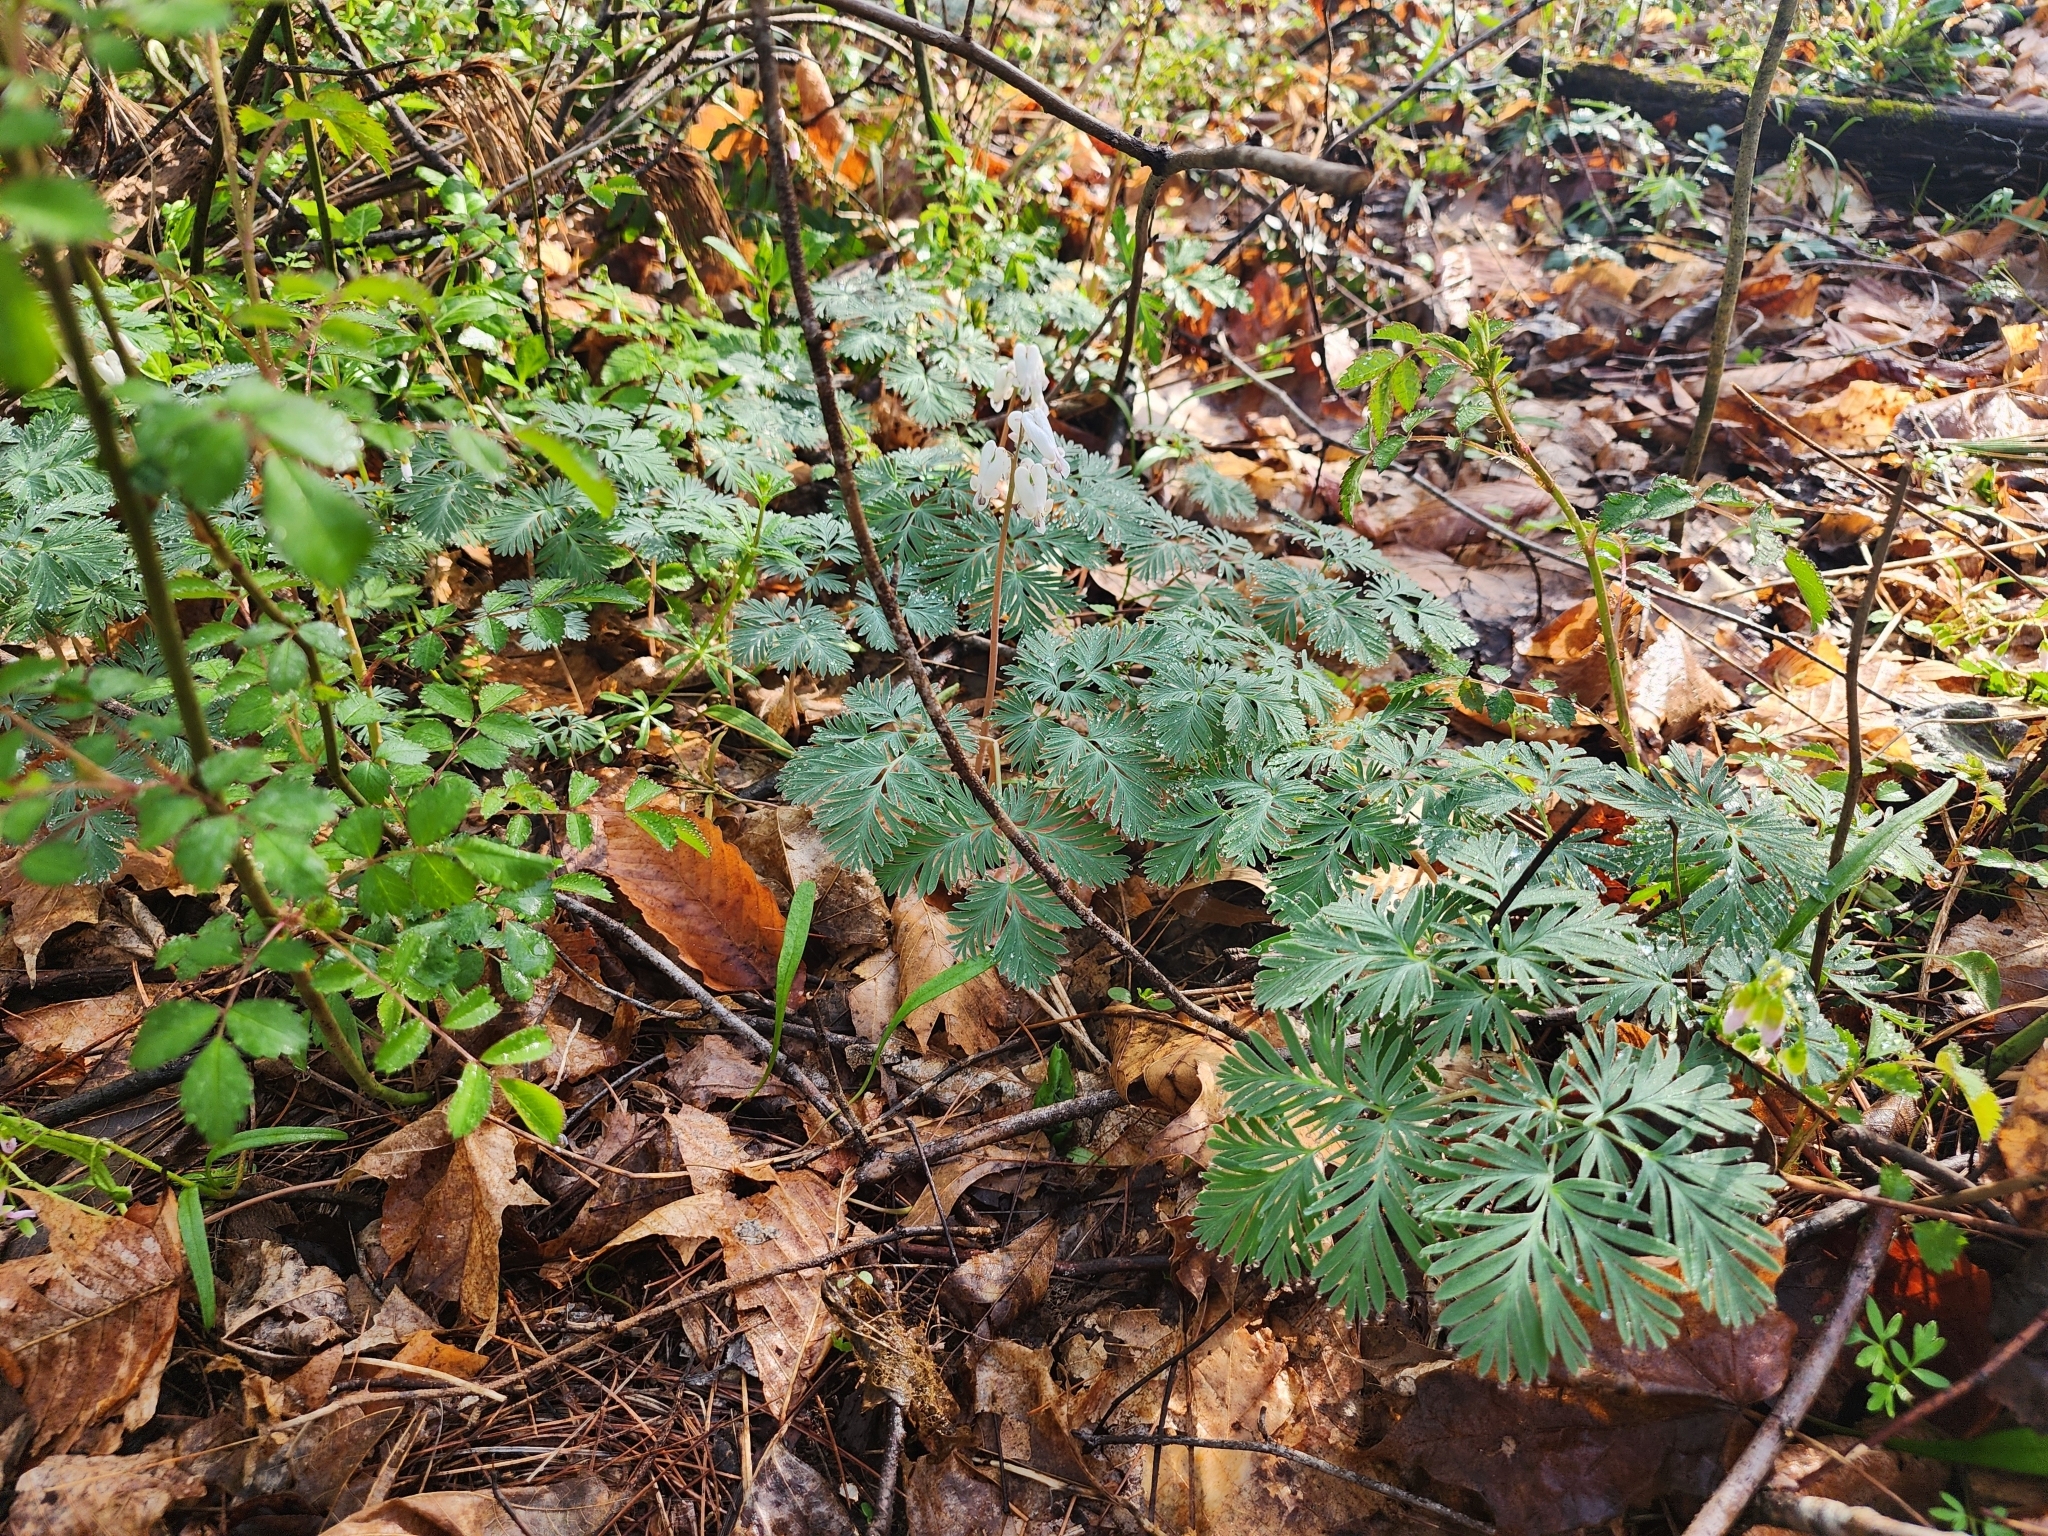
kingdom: Plantae
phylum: Tracheophyta
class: Magnoliopsida
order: Ranunculales
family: Papaveraceae
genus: Dicentra
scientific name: Dicentra canadensis
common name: Squirrel-corn
